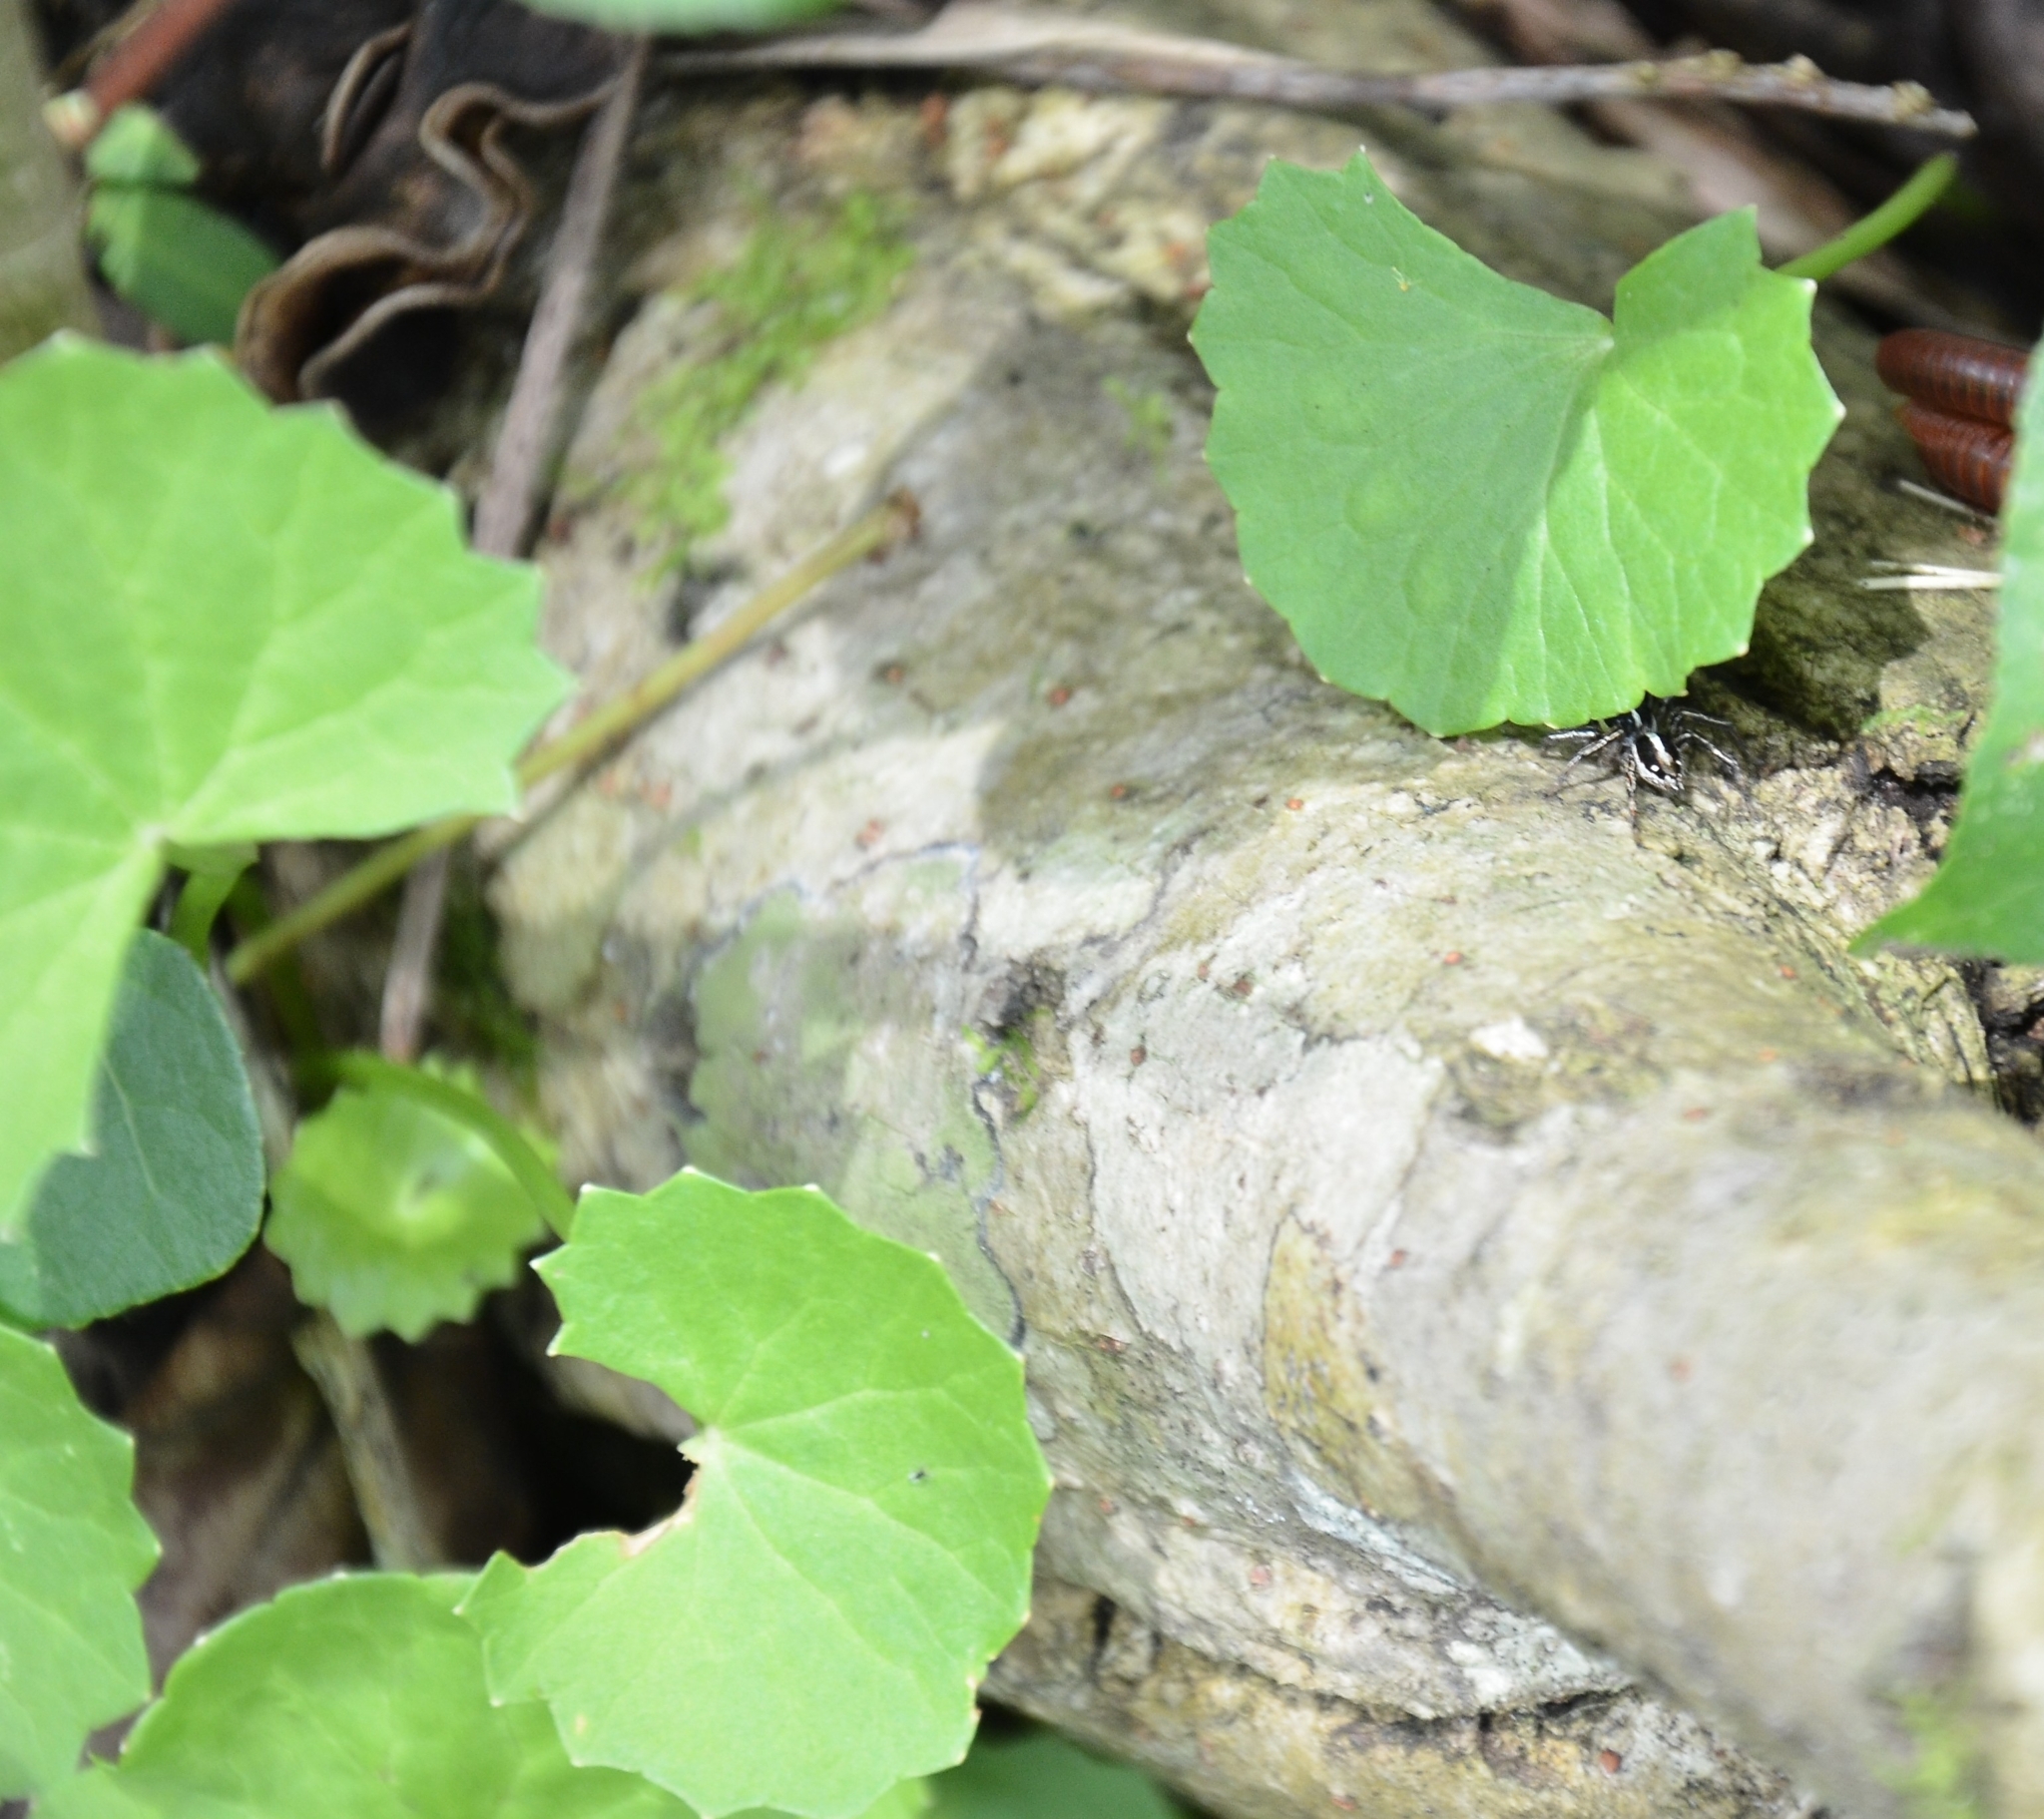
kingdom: Plantae
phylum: Tracheophyta
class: Magnoliopsida
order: Apiales
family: Apiaceae
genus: Centella
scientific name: Centella asiatica
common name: Spadeleaf
